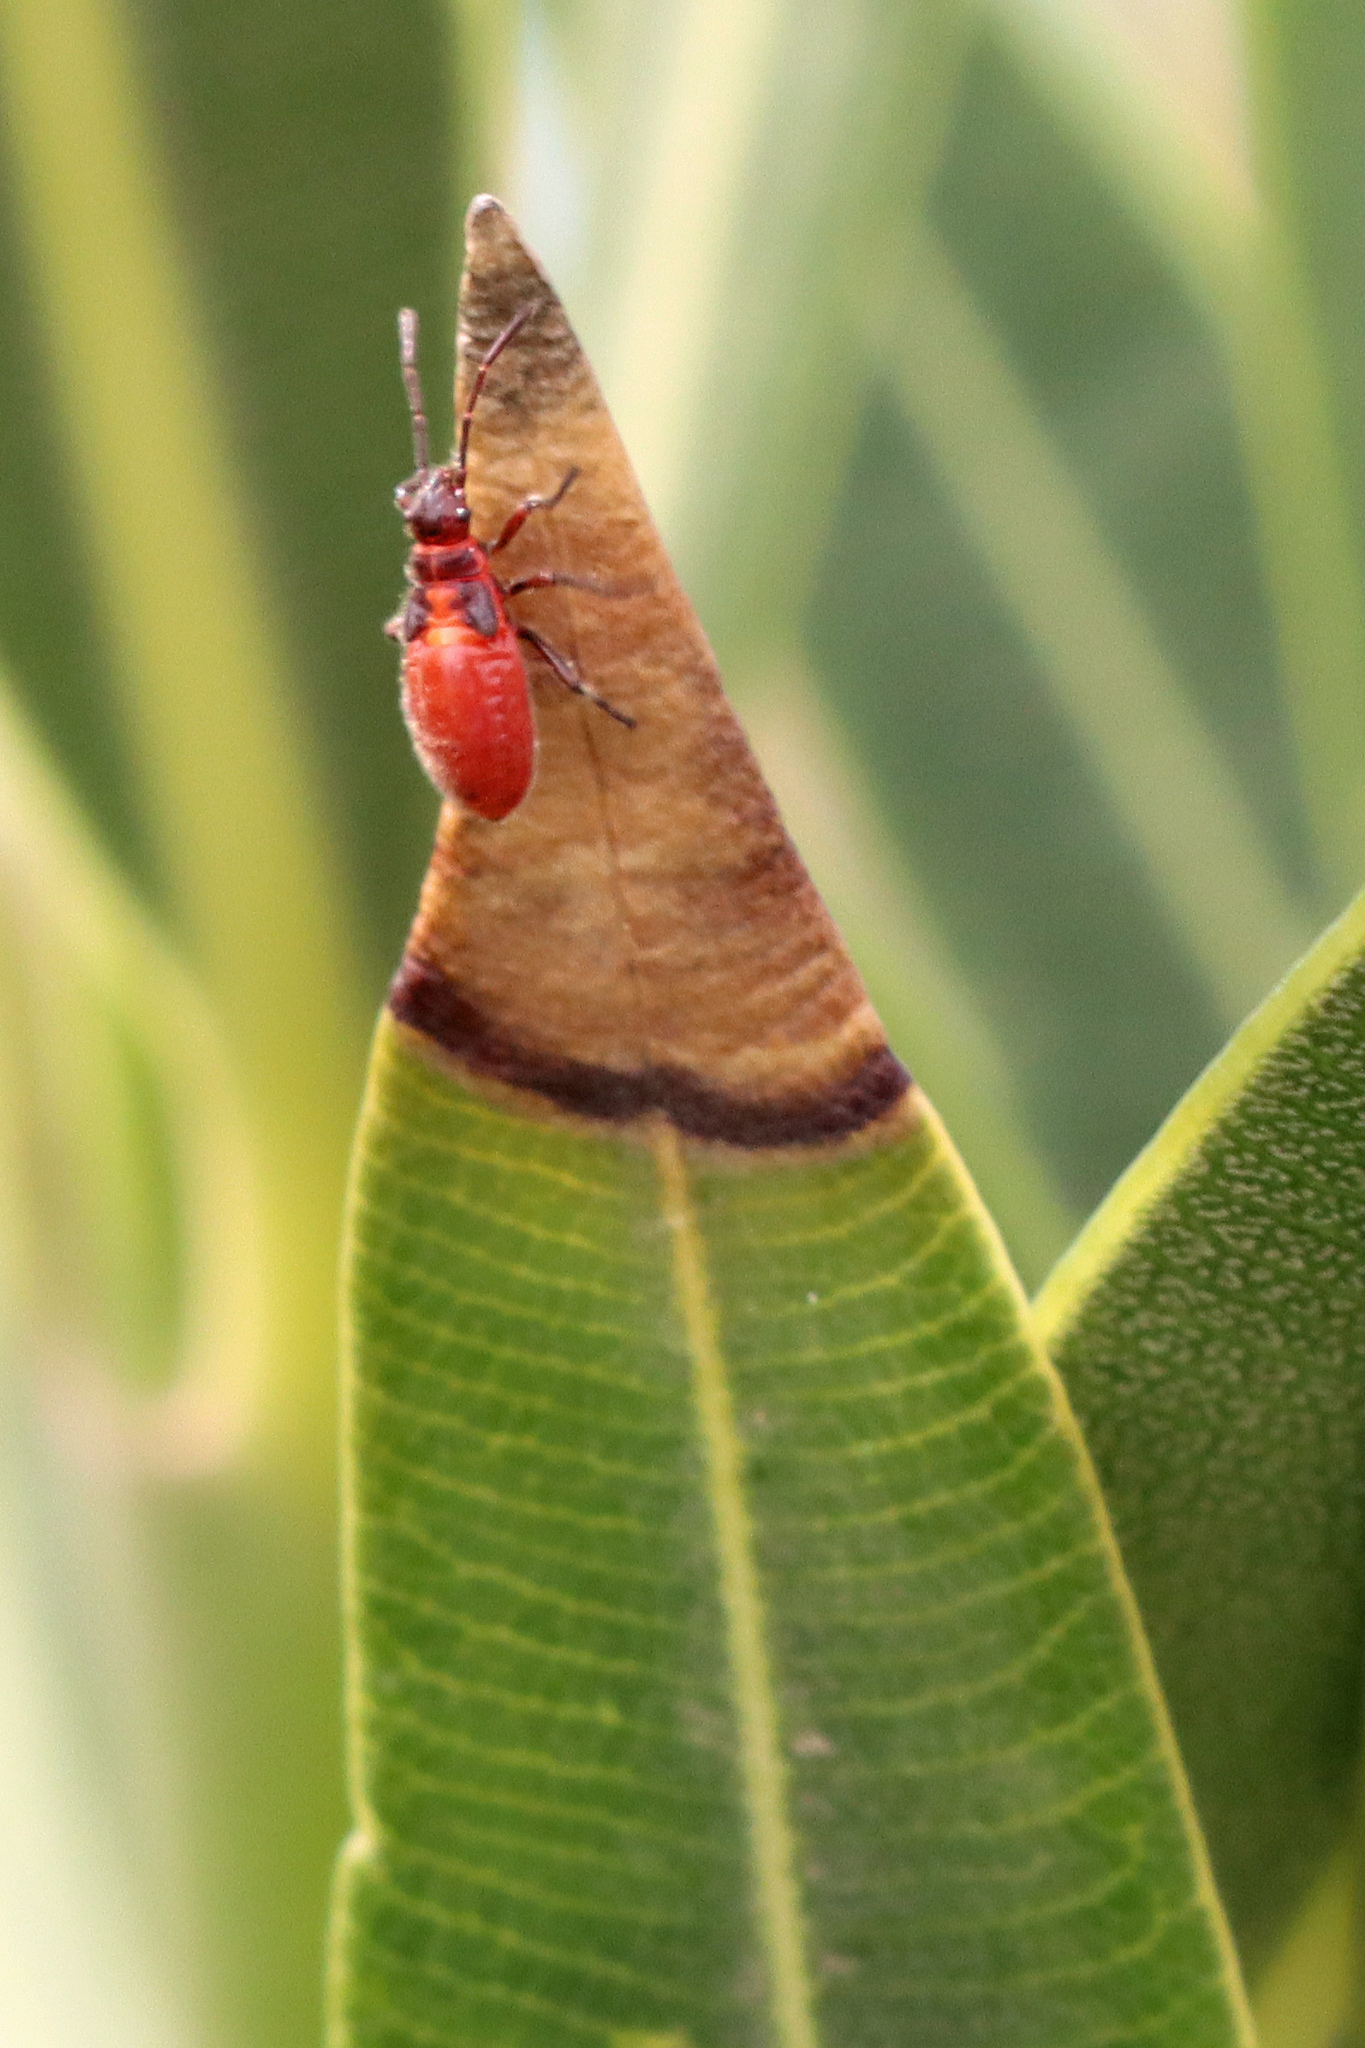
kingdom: Animalia
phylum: Arthropoda
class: Insecta
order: Hemiptera
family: Lygaeidae
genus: Caenocoris
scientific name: Caenocoris nerii
